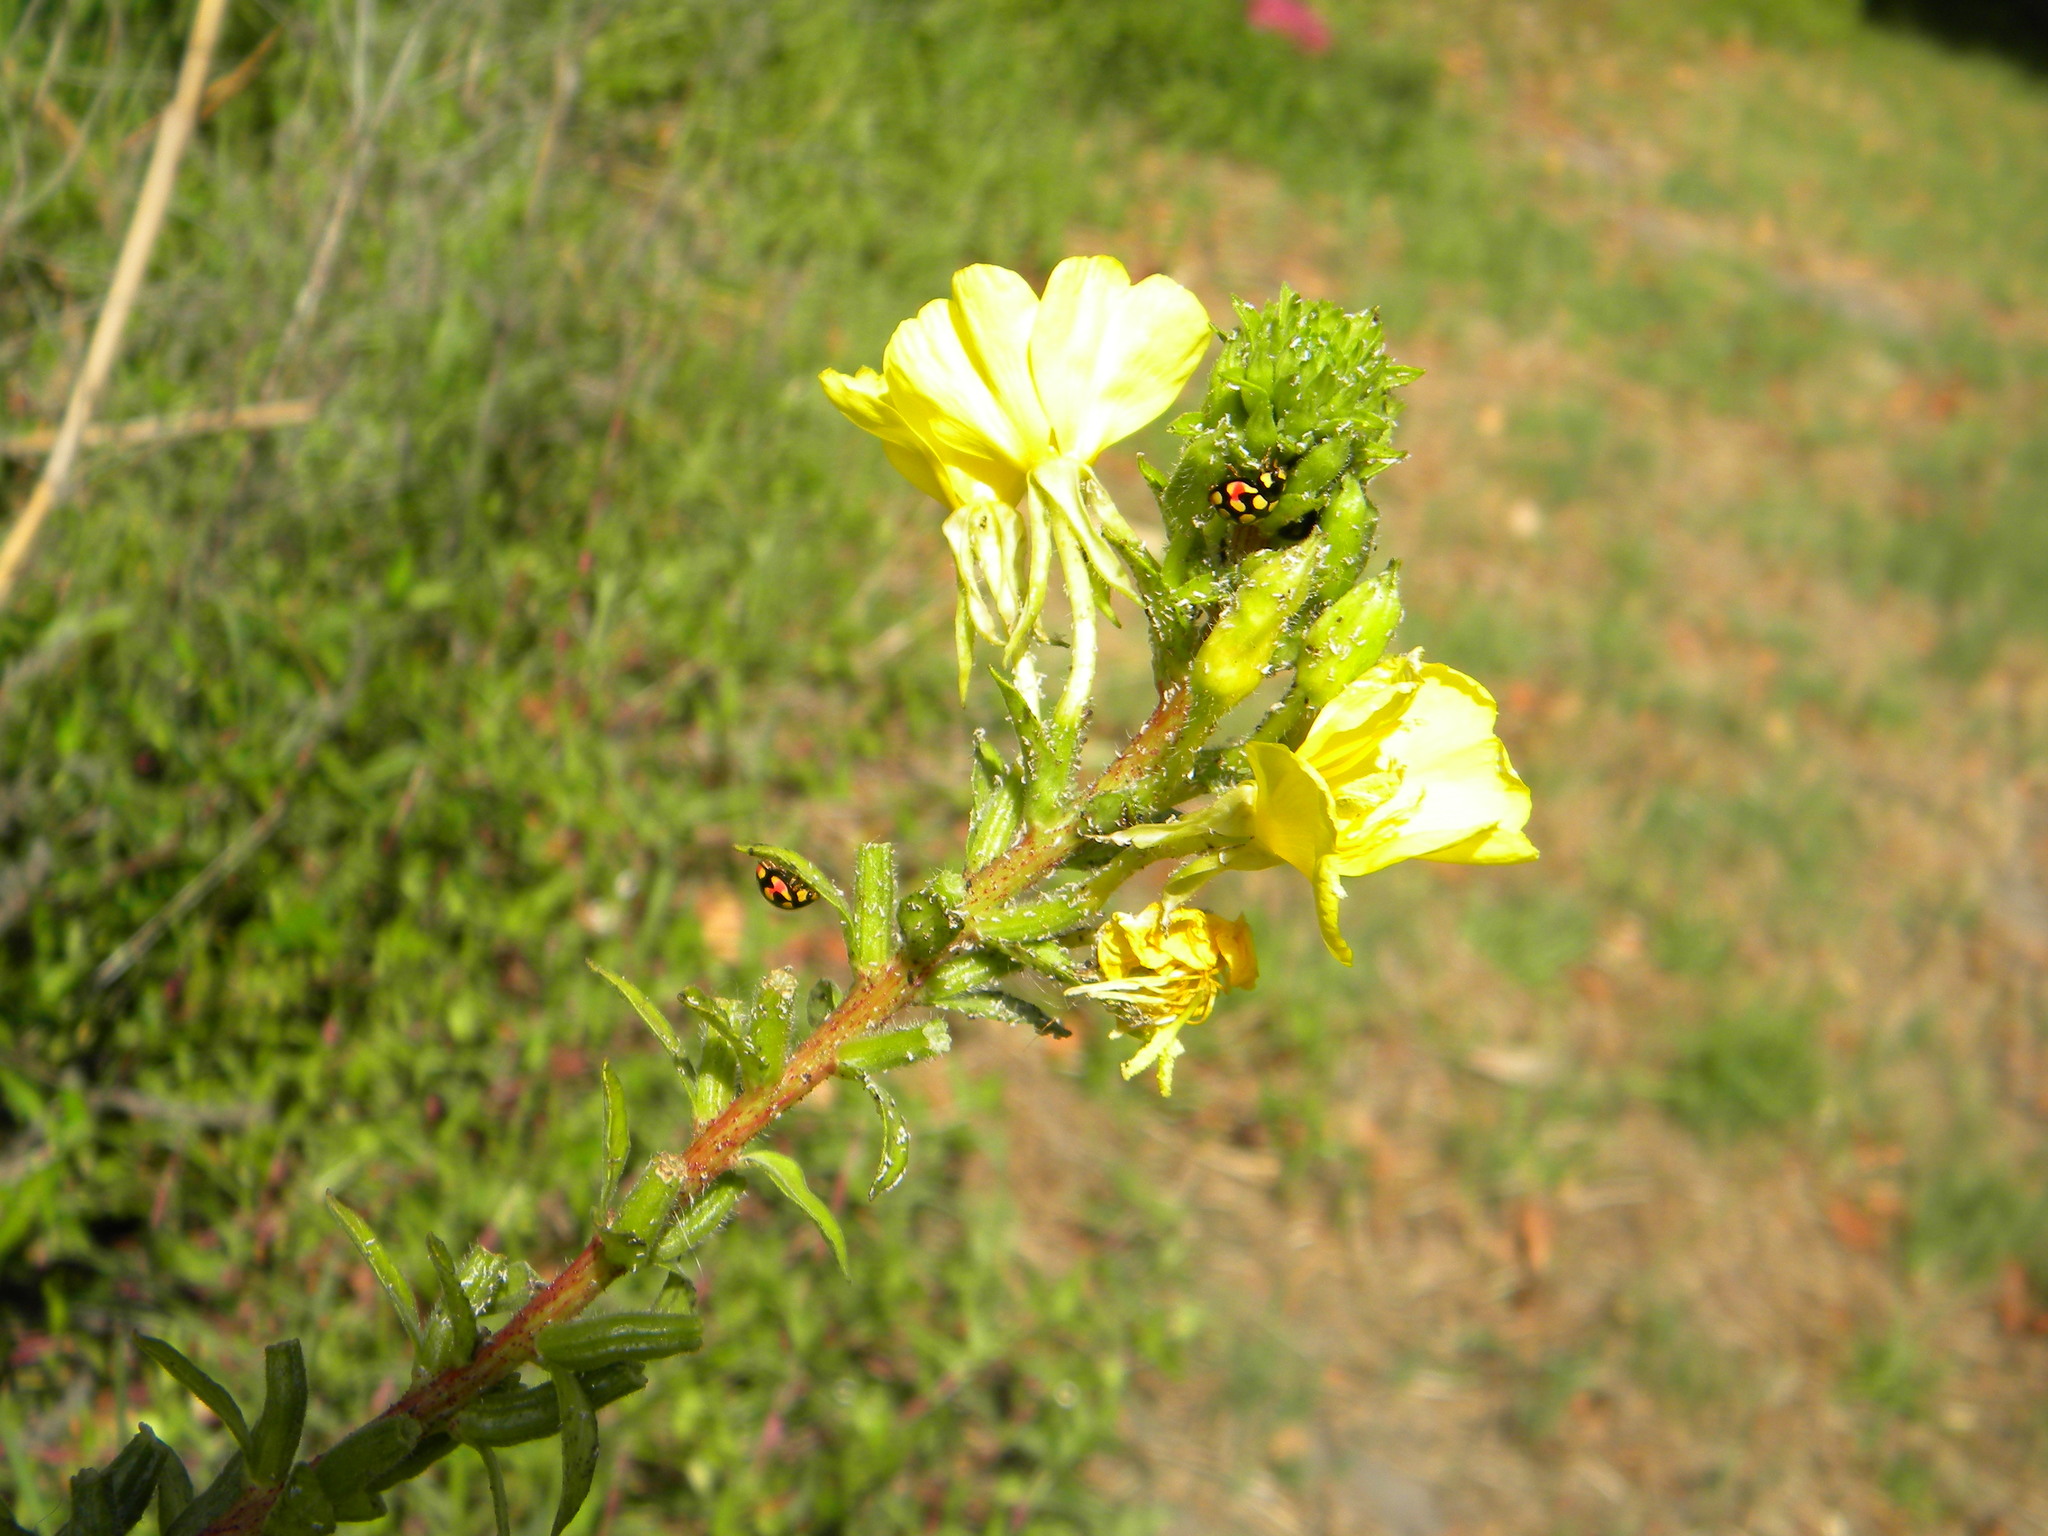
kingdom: Animalia
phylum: Arthropoda
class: Insecta
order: Coleoptera
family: Coccinellidae
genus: Cheilomenes
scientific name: Cheilomenes sulphurea
